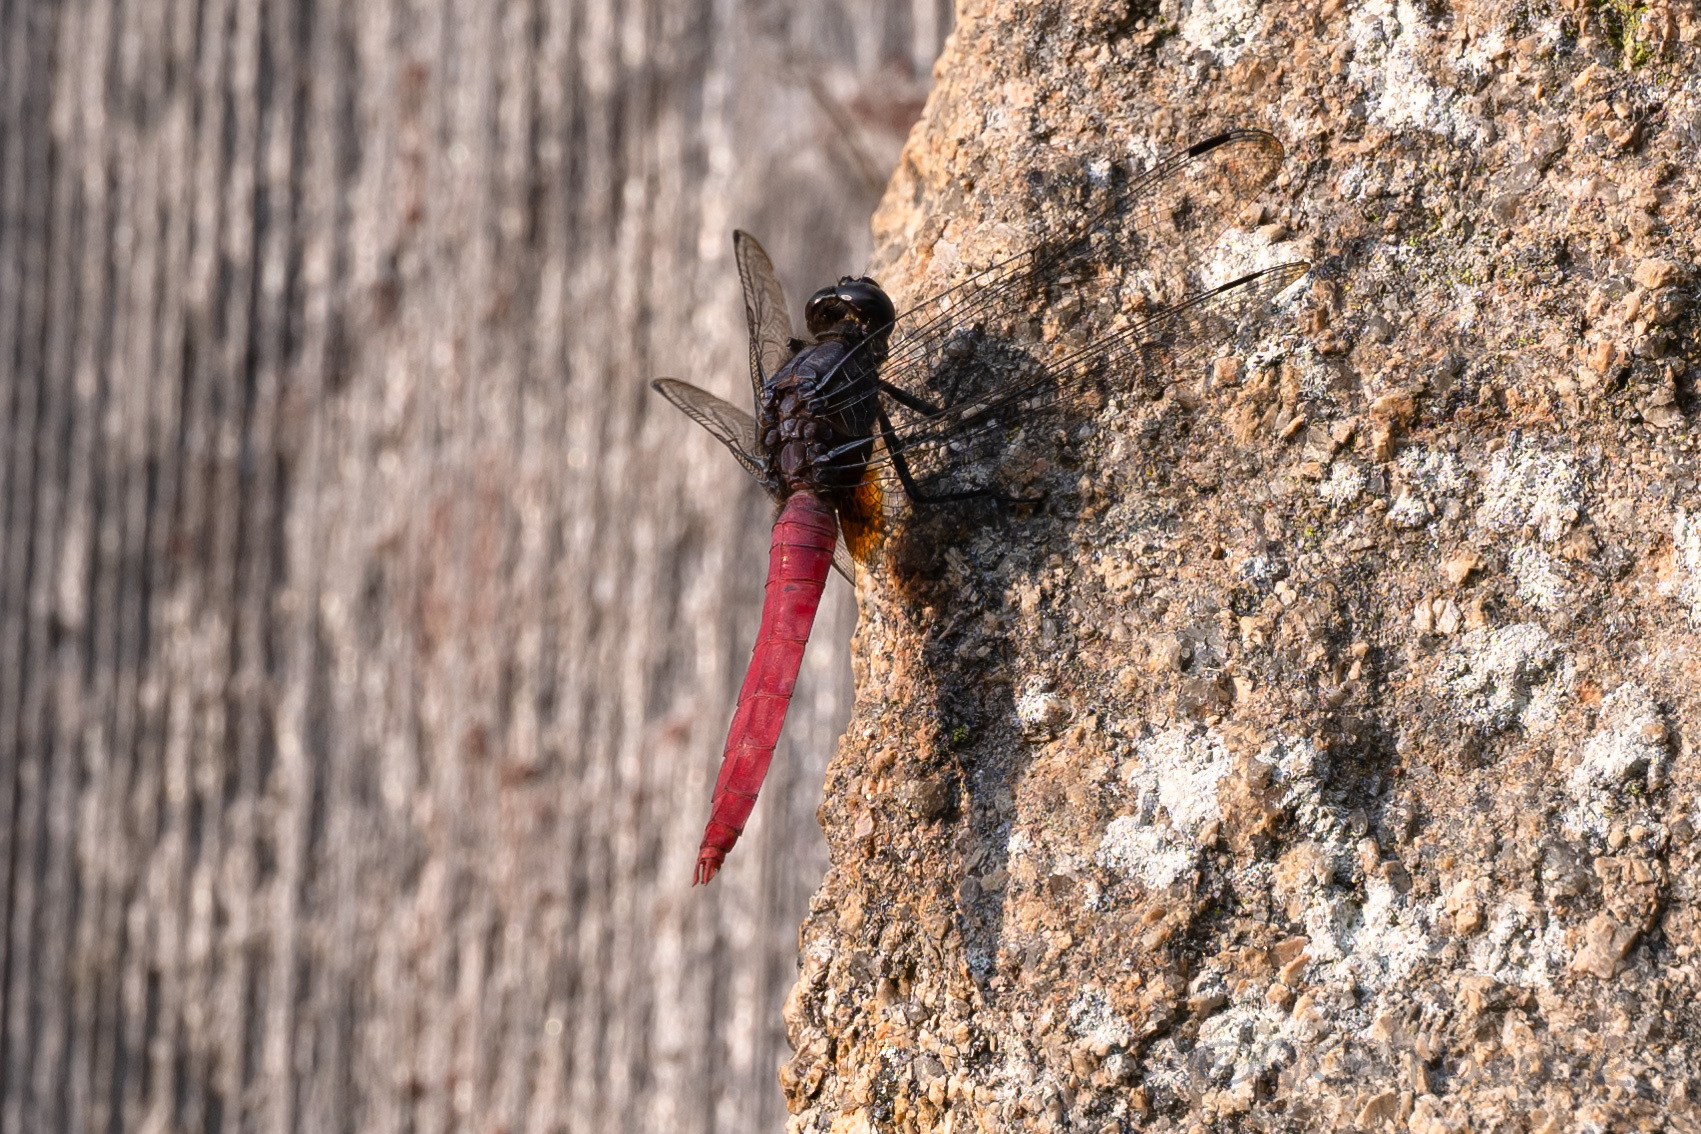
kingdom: Animalia
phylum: Arthropoda
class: Insecta
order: Odonata
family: Libellulidae
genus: Orthetrum
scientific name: Orthetrum pruinosum
